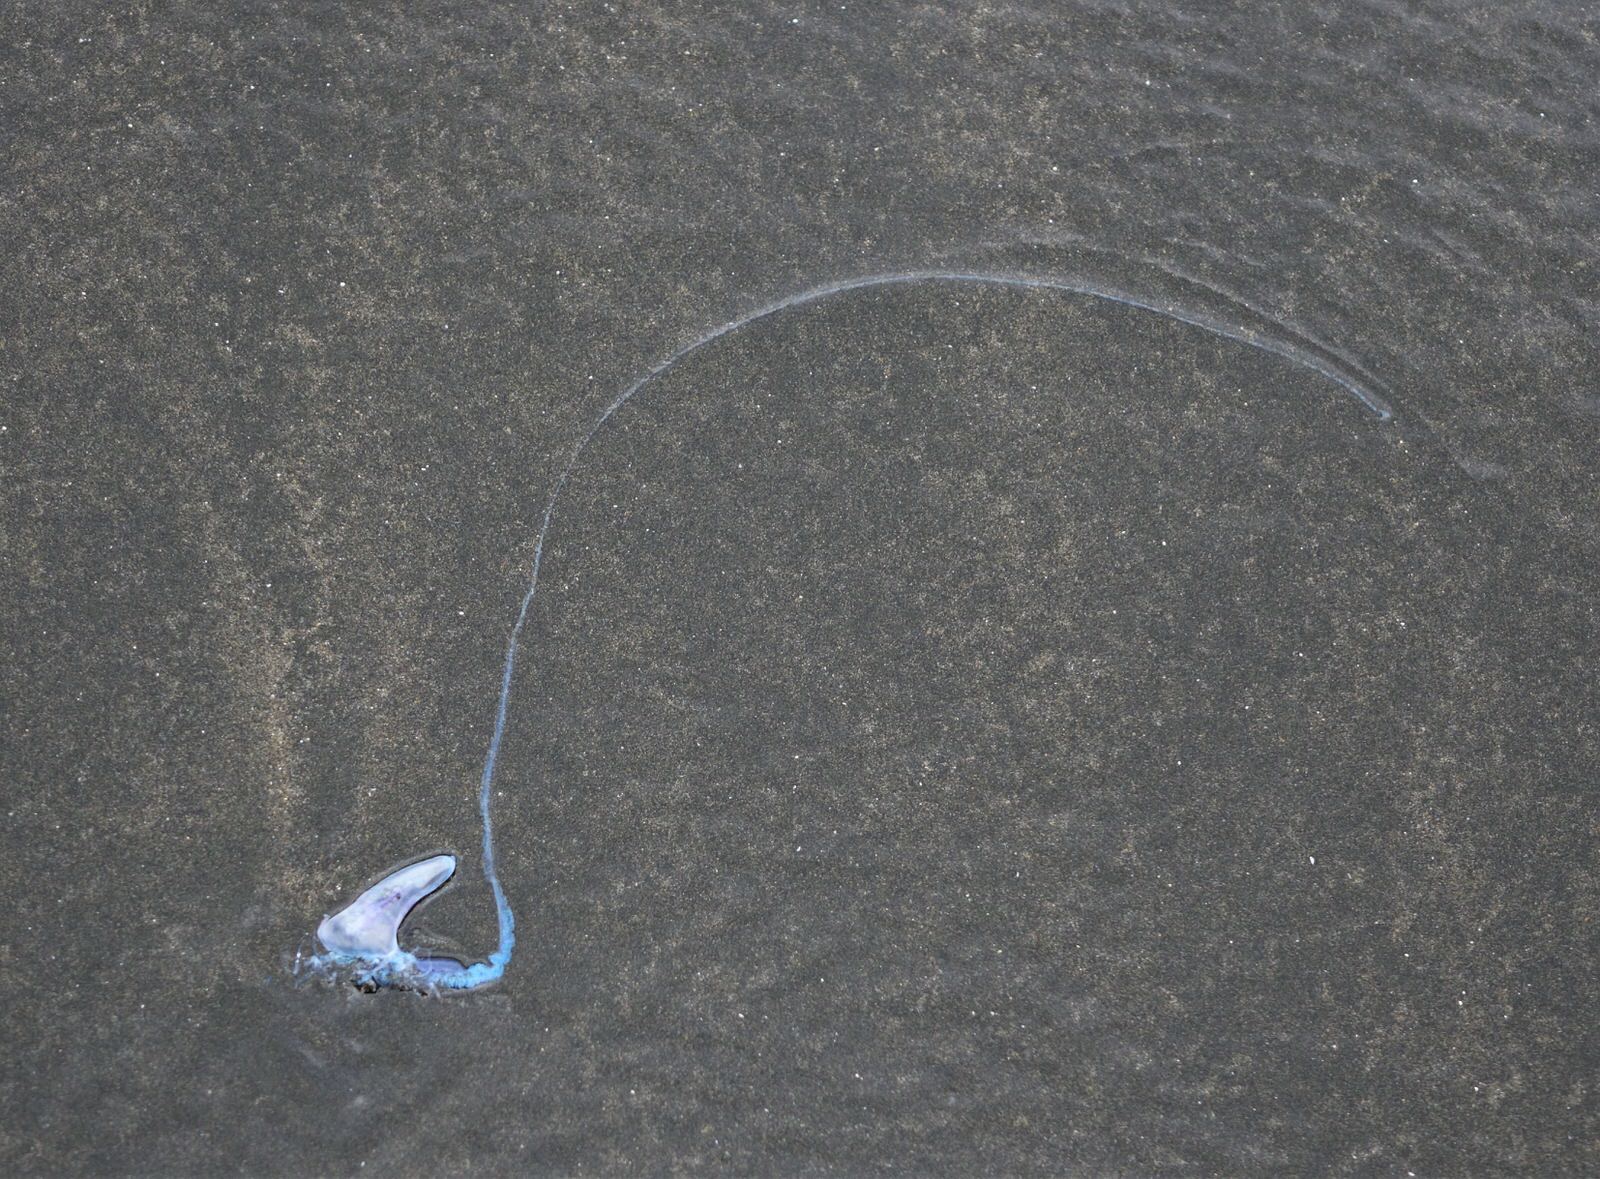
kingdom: Animalia
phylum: Cnidaria
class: Hydrozoa
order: Siphonophorae
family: Physaliidae
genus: Physalia
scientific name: Physalia physalis
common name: Portuguese man-of-war
